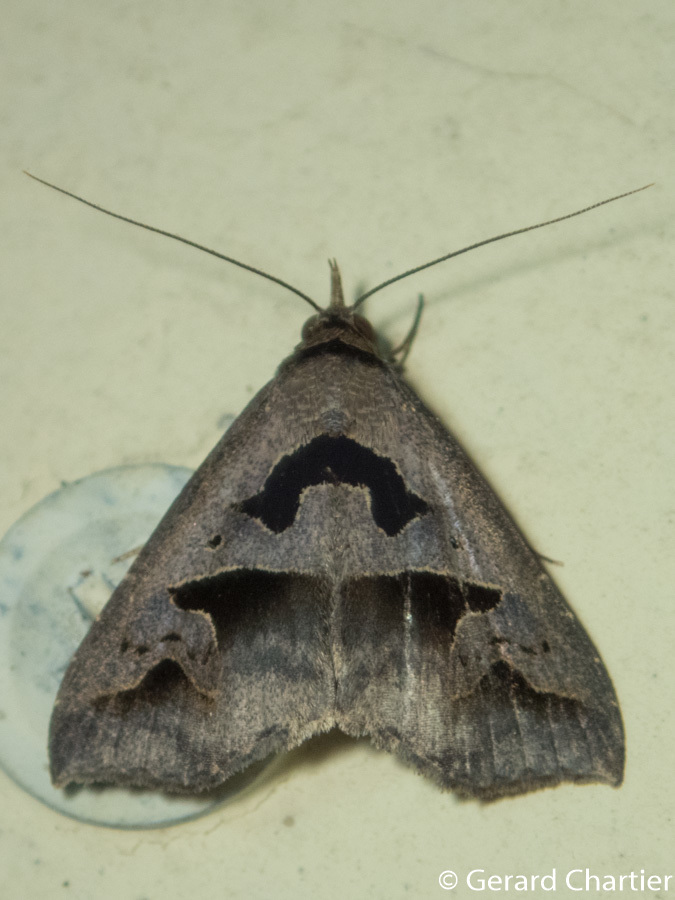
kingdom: Animalia
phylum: Arthropoda
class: Insecta
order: Lepidoptera
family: Erebidae
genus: Tephriopis
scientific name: Tephriopis divulsa
